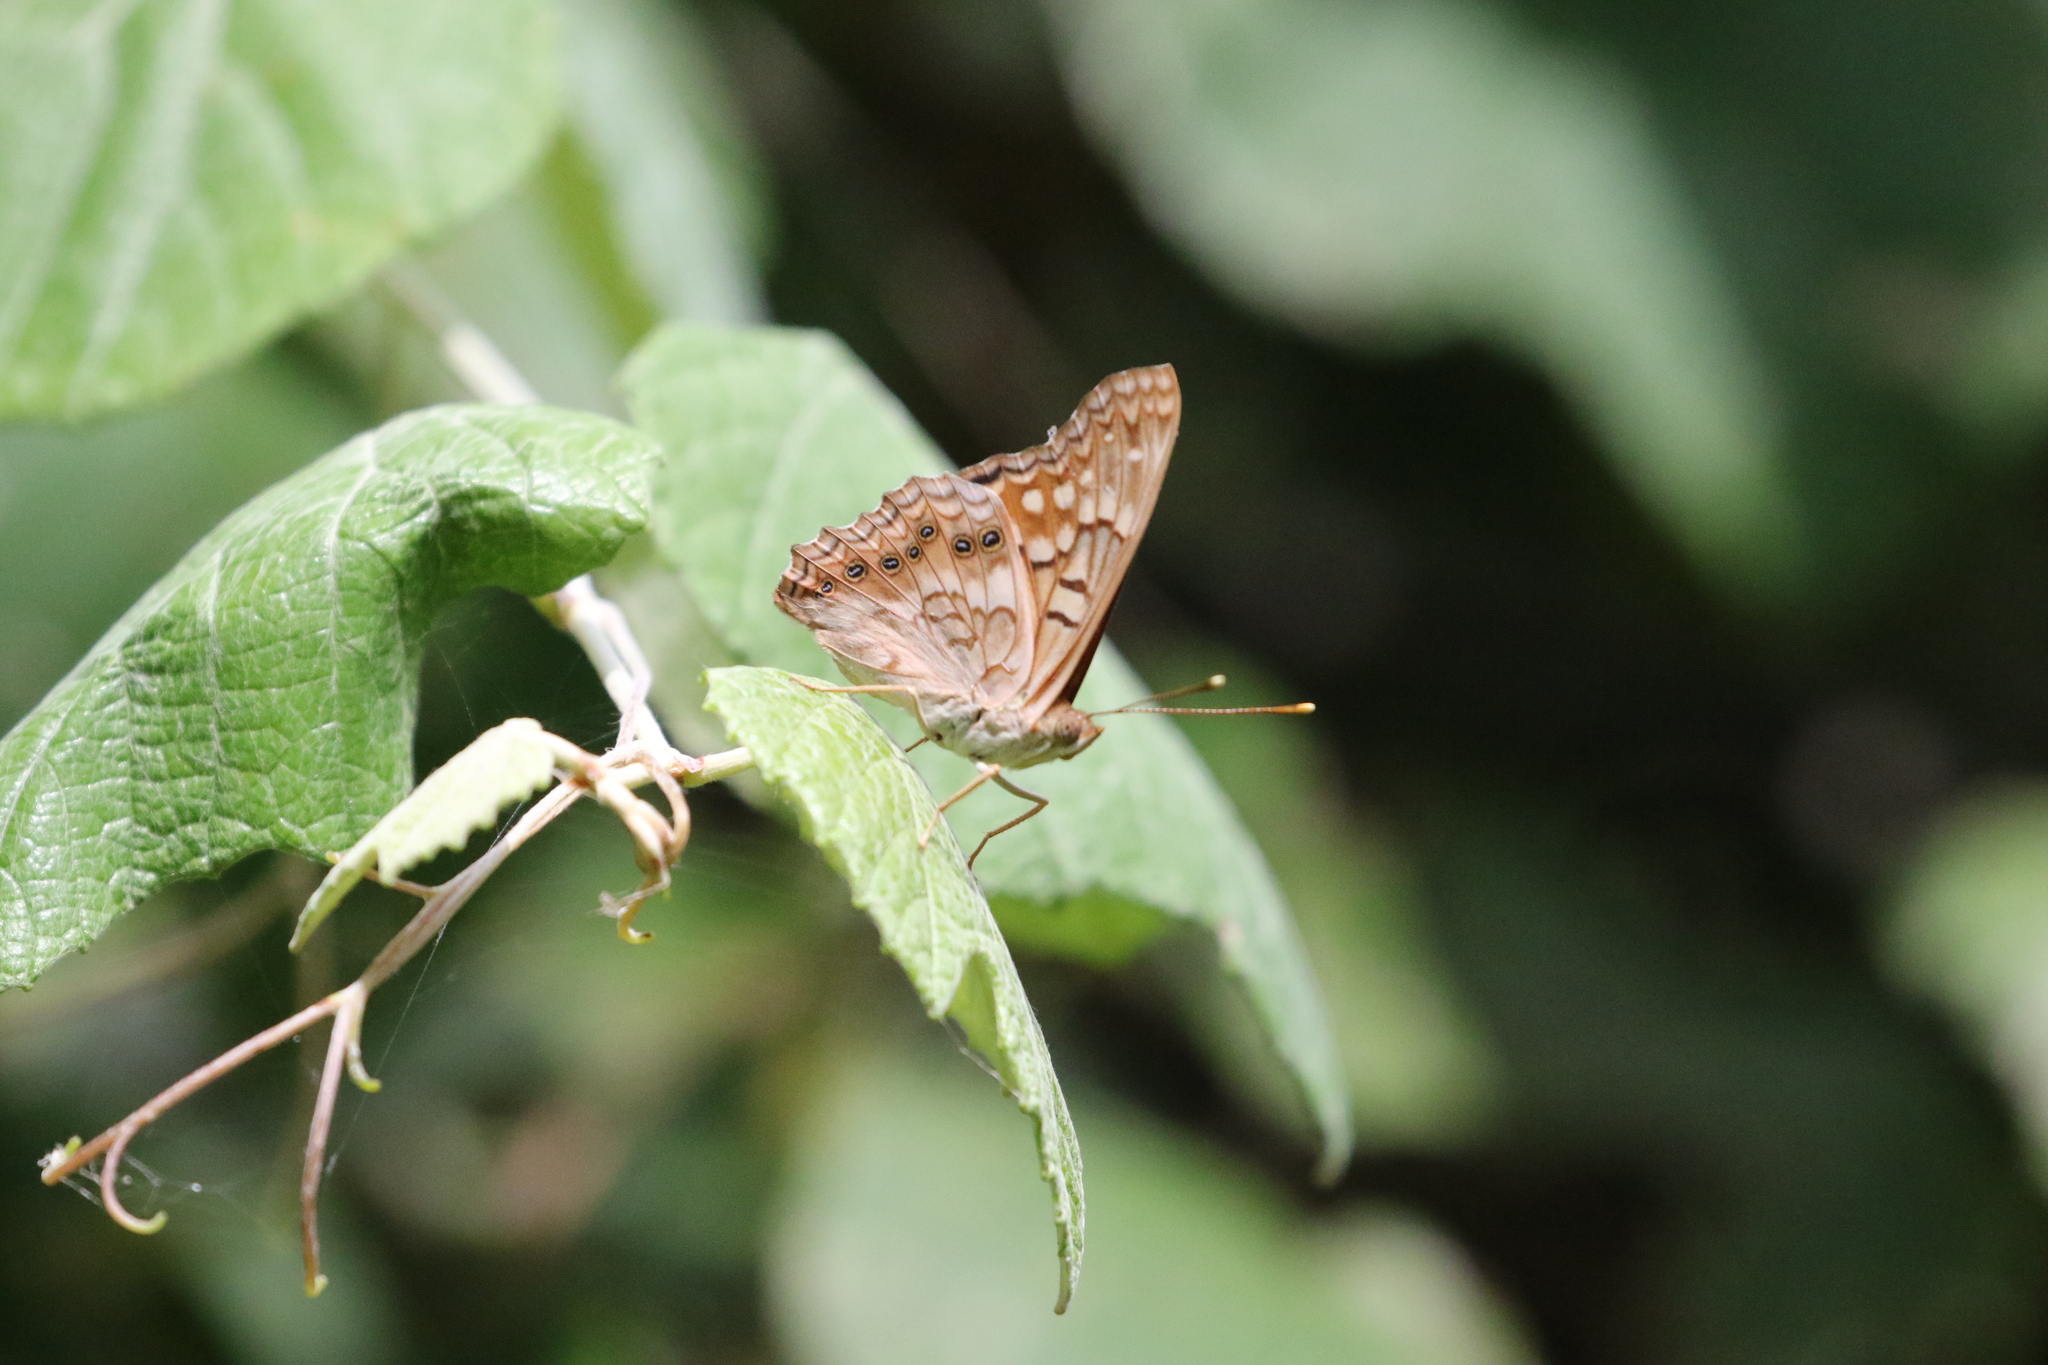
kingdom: Animalia
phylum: Arthropoda
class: Insecta
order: Lepidoptera
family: Nymphalidae
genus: Asterocampa
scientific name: Asterocampa clyton
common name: Tawny emperor
